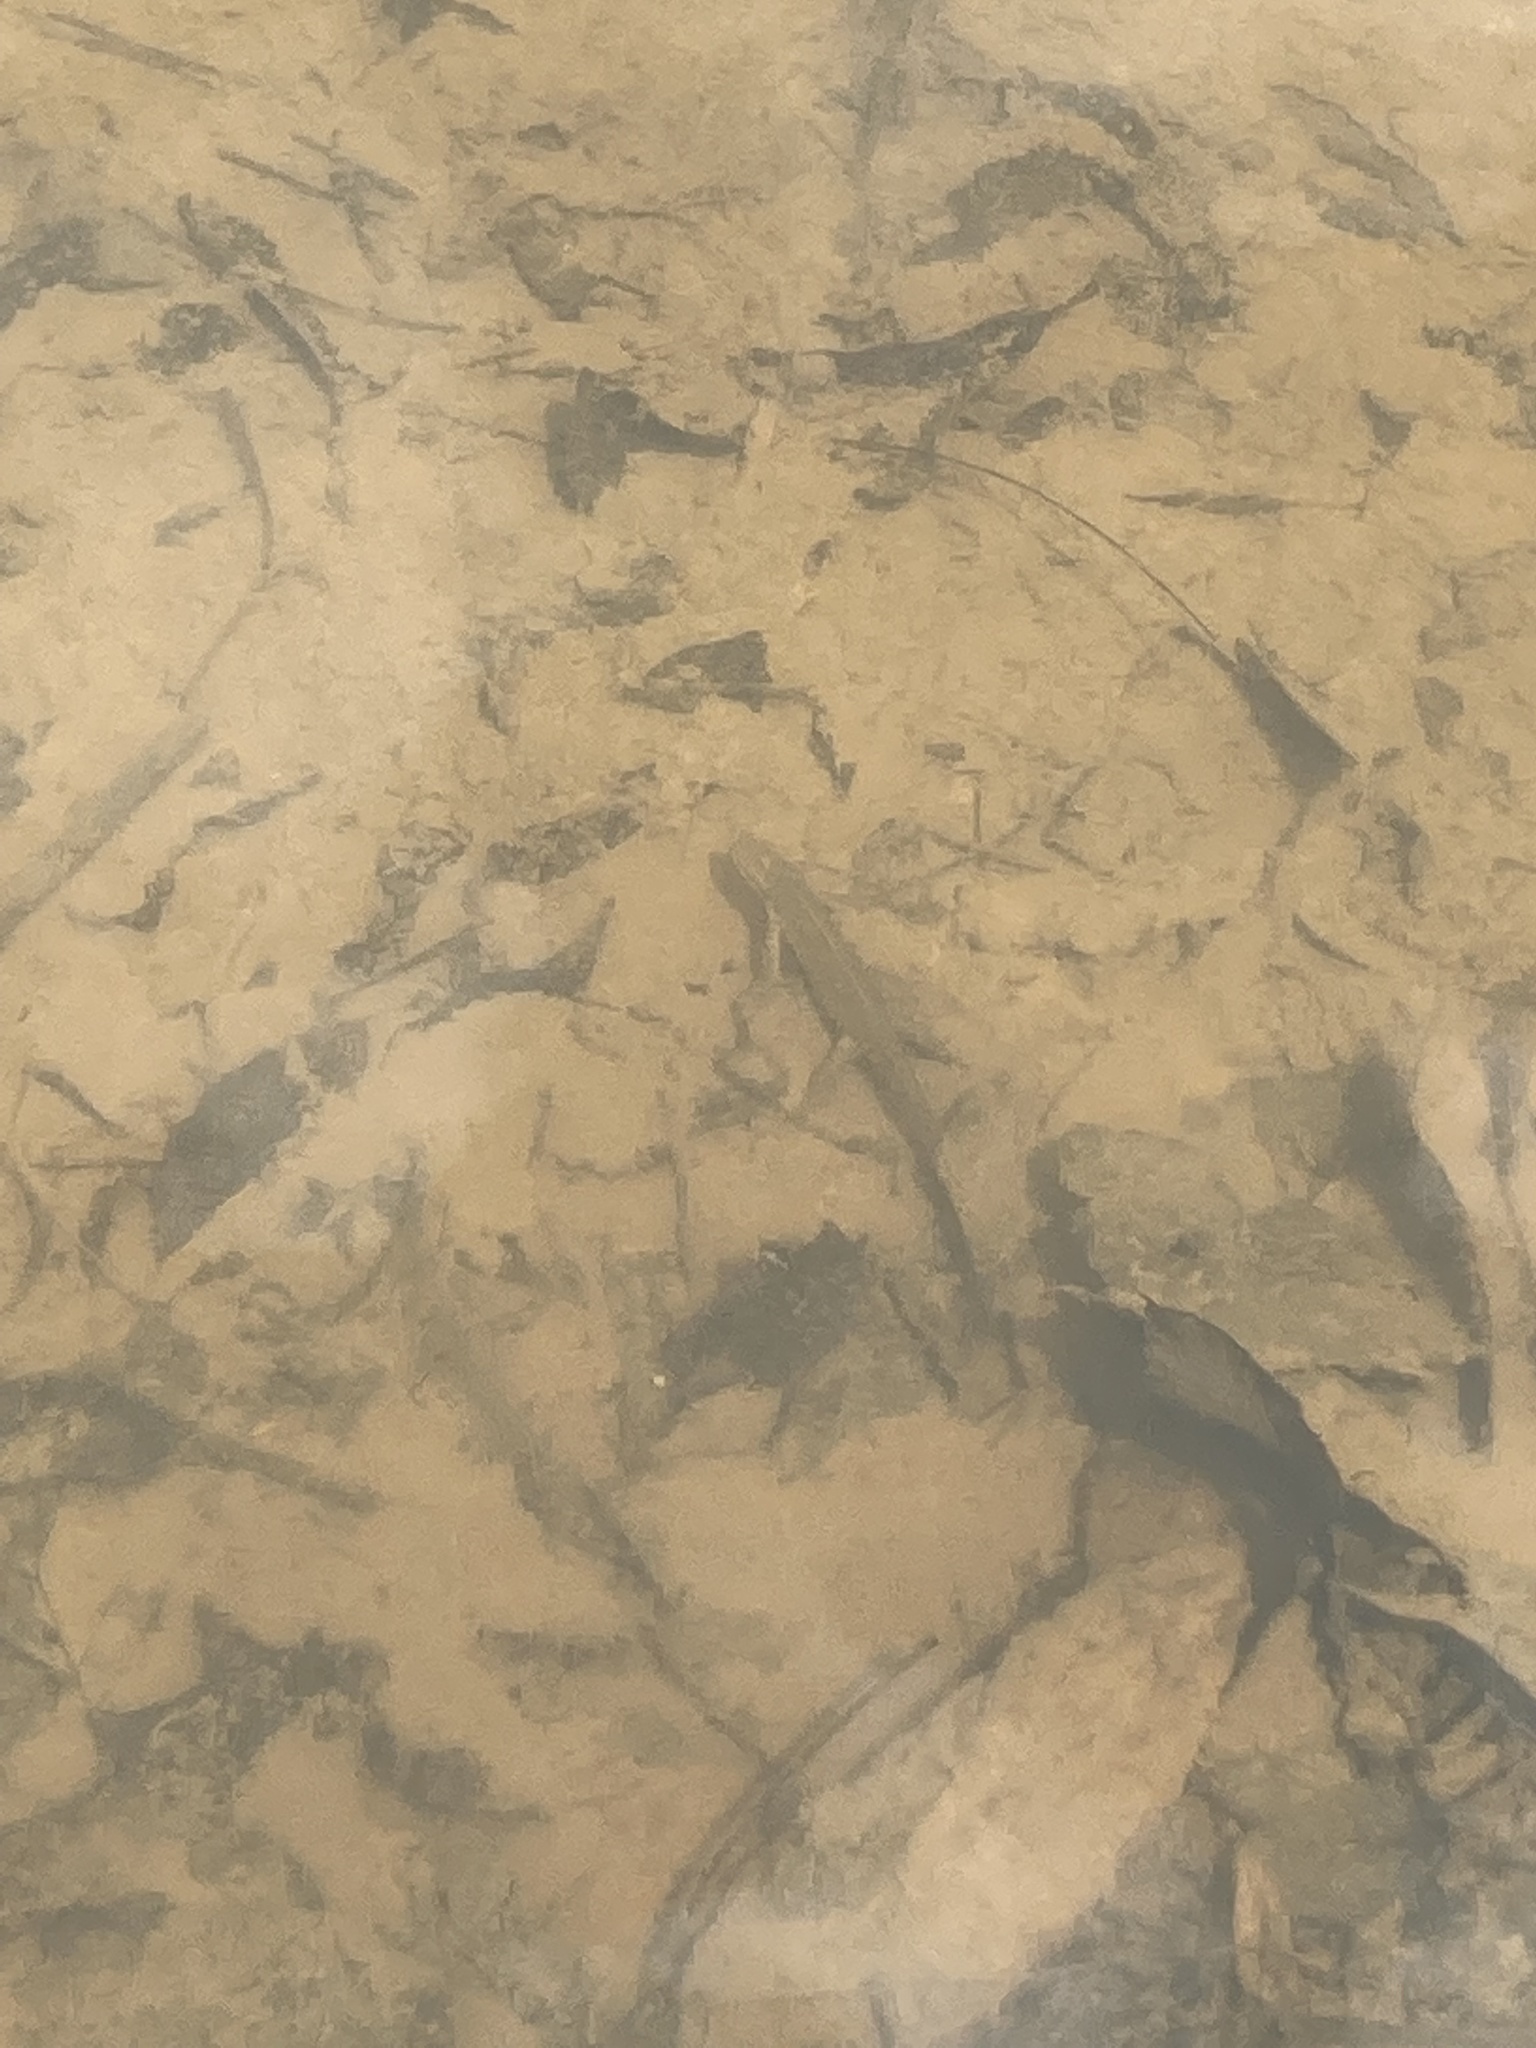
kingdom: Animalia
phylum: Chordata
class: Amphibia
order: Caudata
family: Salamandridae
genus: Notophthalmus
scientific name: Notophthalmus viridescens
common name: Eastern newt
